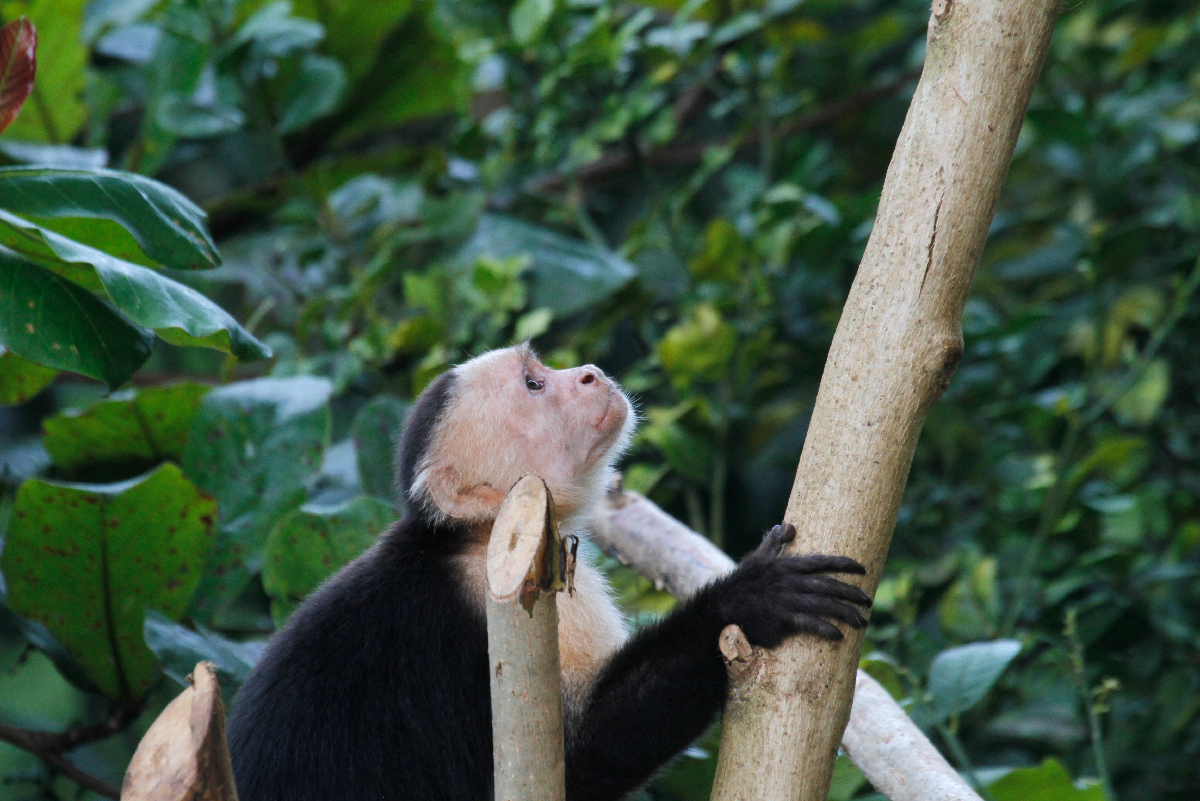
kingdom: Animalia
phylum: Chordata
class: Mammalia
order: Primates
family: Cebidae
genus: Cebus
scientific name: Cebus imitator
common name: Panamanian white-faced capuchin
